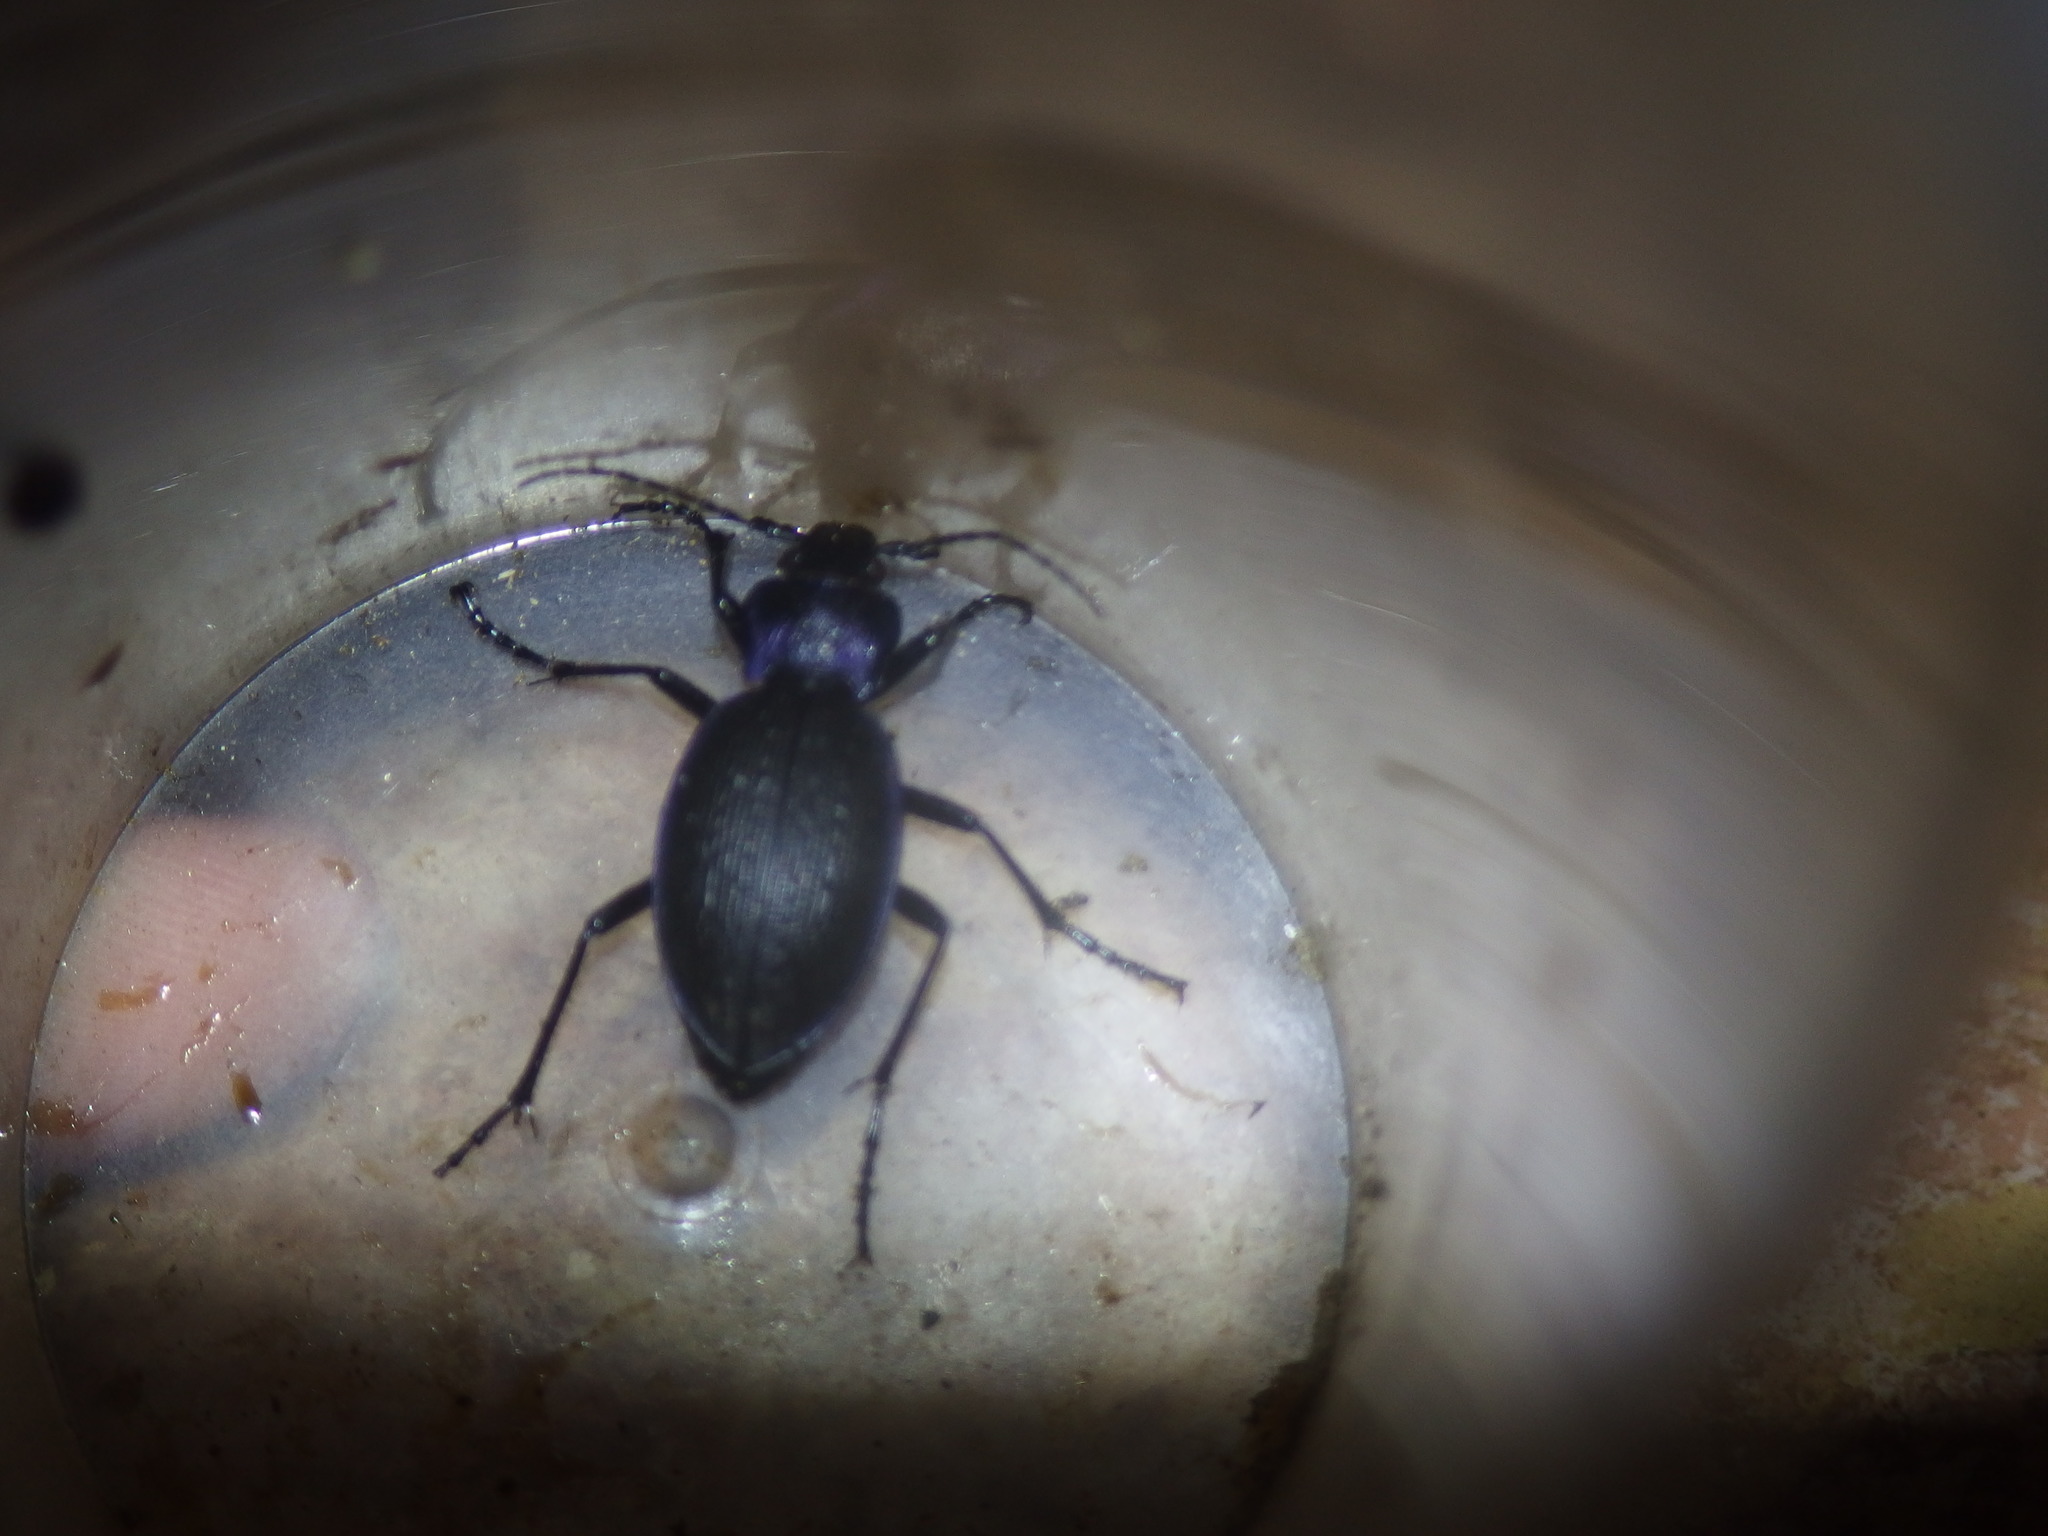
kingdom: Animalia
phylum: Arthropoda
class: Insecta
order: Coleoptera
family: Carabidae
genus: Carabus
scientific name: Carabus problematicus
